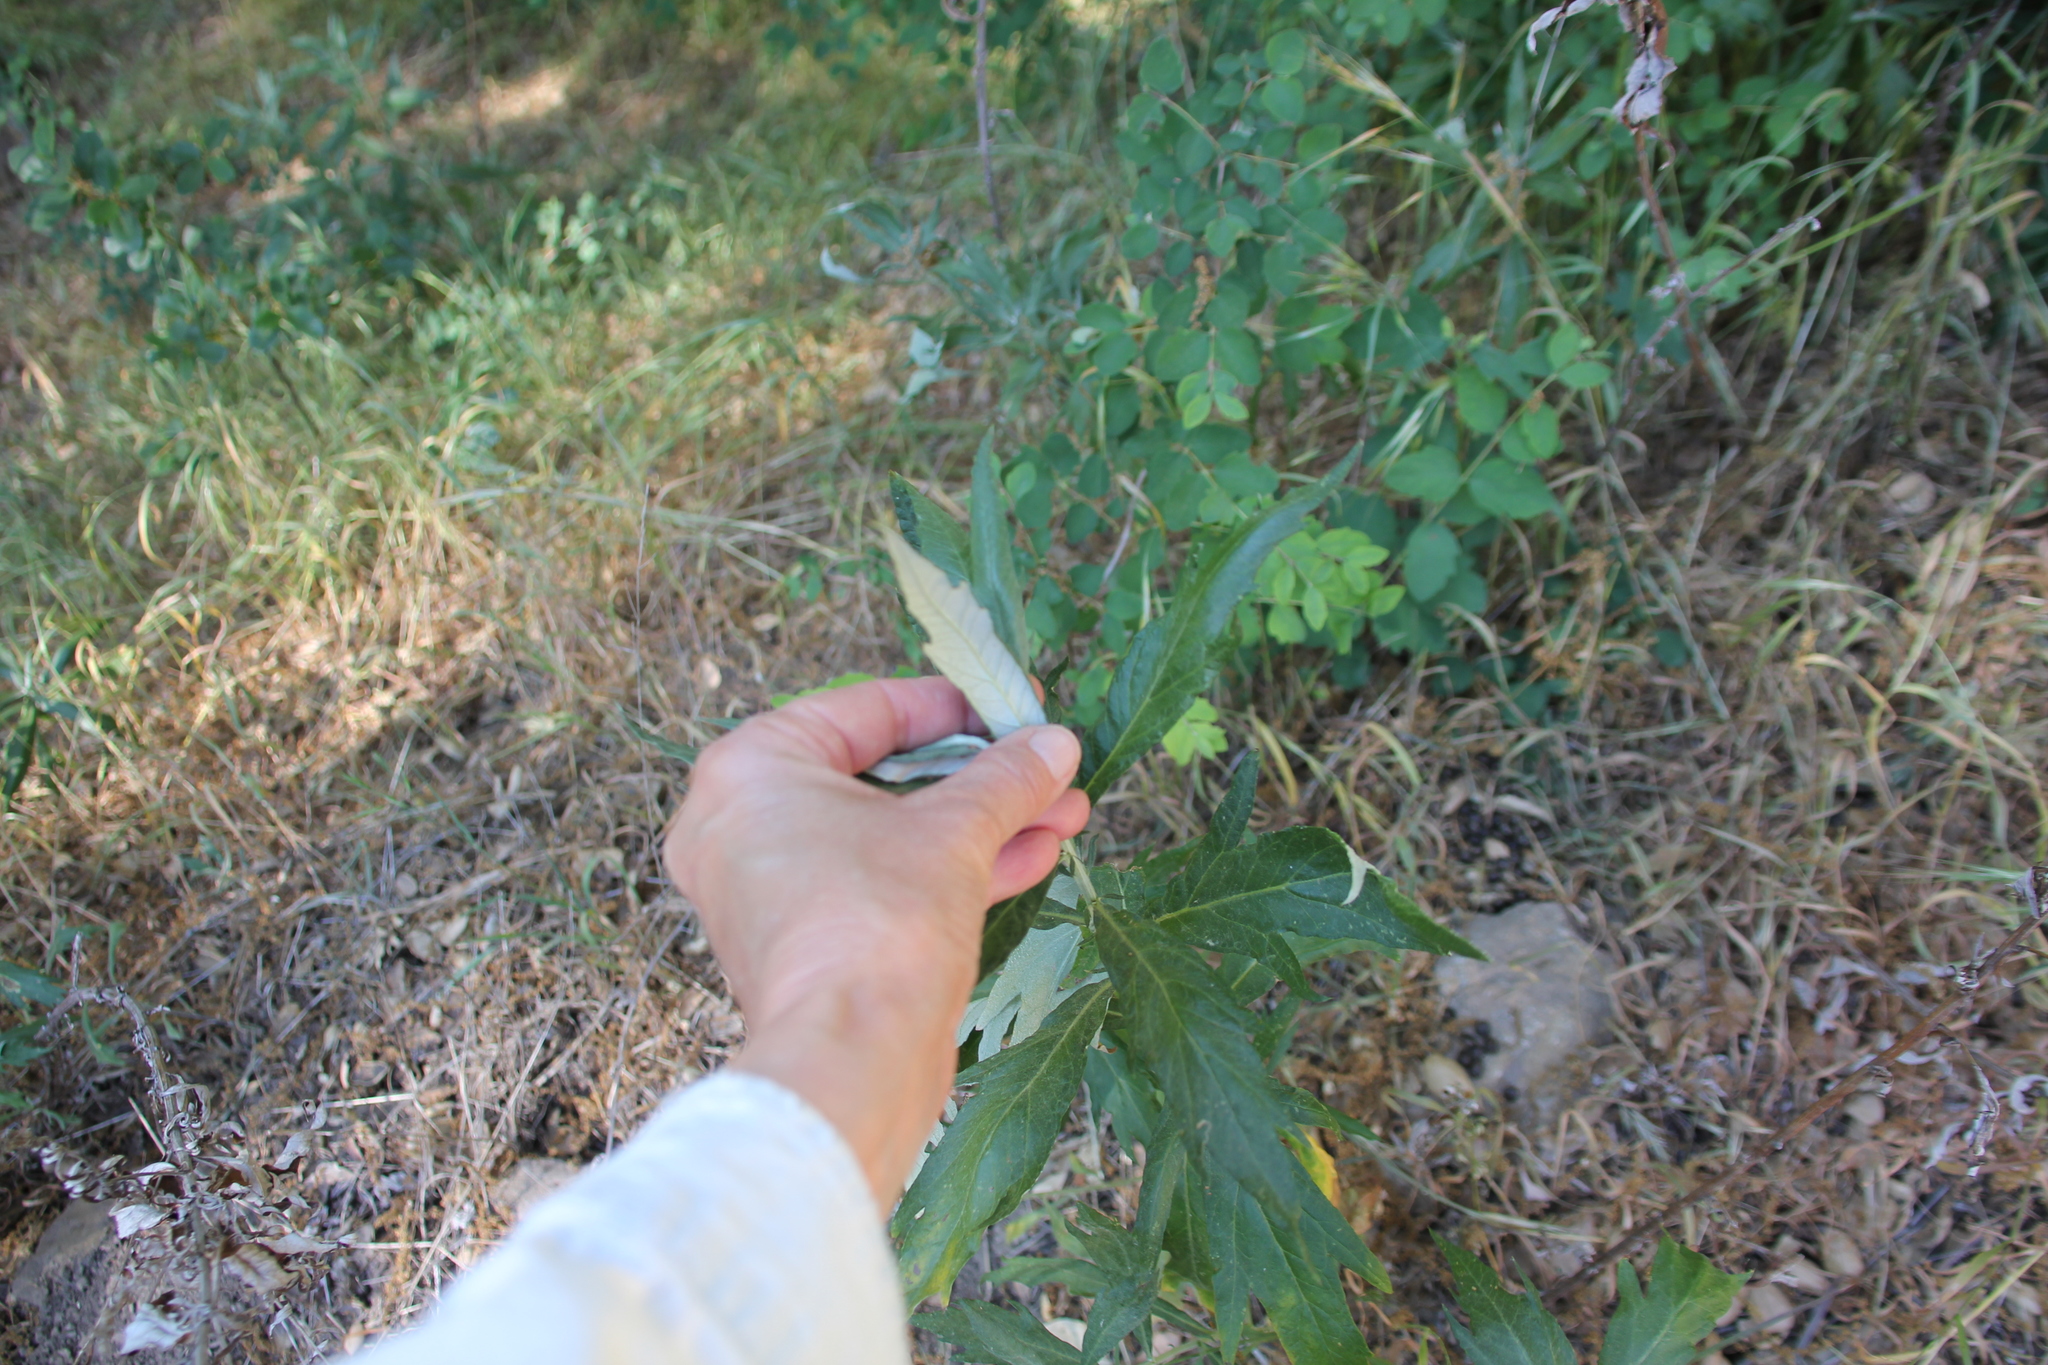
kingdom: Plantae
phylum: Tracheophyta
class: Magnoliopsida
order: Asterales
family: Asteraceae
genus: Artemisia
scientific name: Artemisia douglasiana
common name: Northwest mugwort
